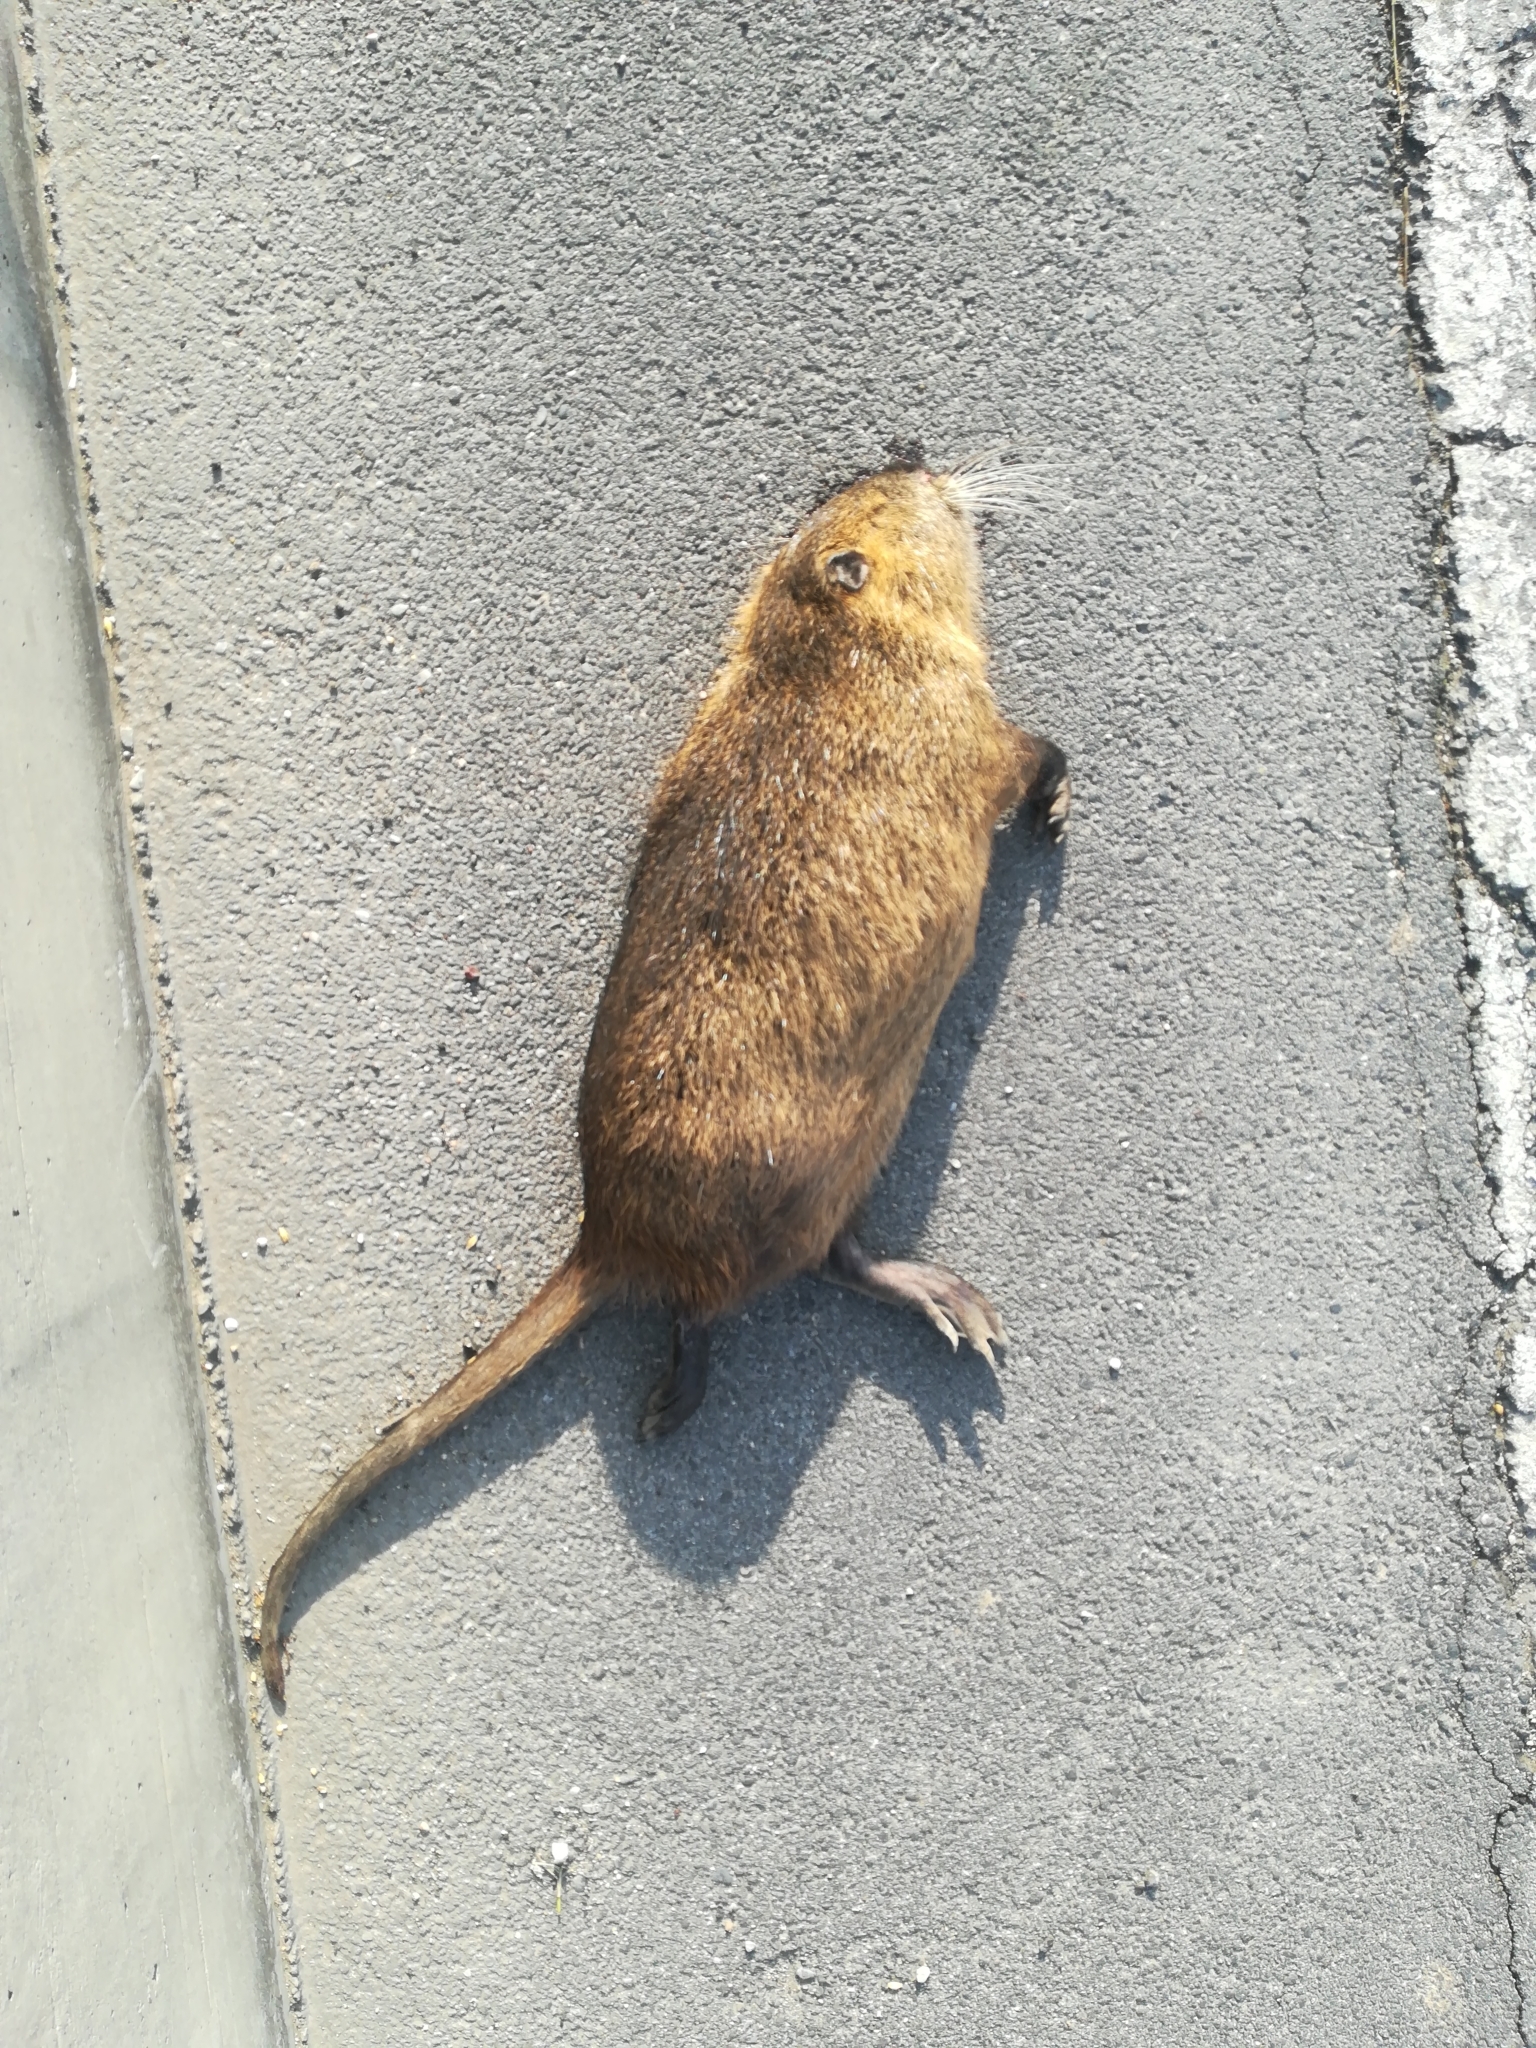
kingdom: Animalia
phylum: Chordata
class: Mammalia
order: Rodentia
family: Myocastoridae
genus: Myocastor
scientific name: Myocastor coypus
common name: Coypu
